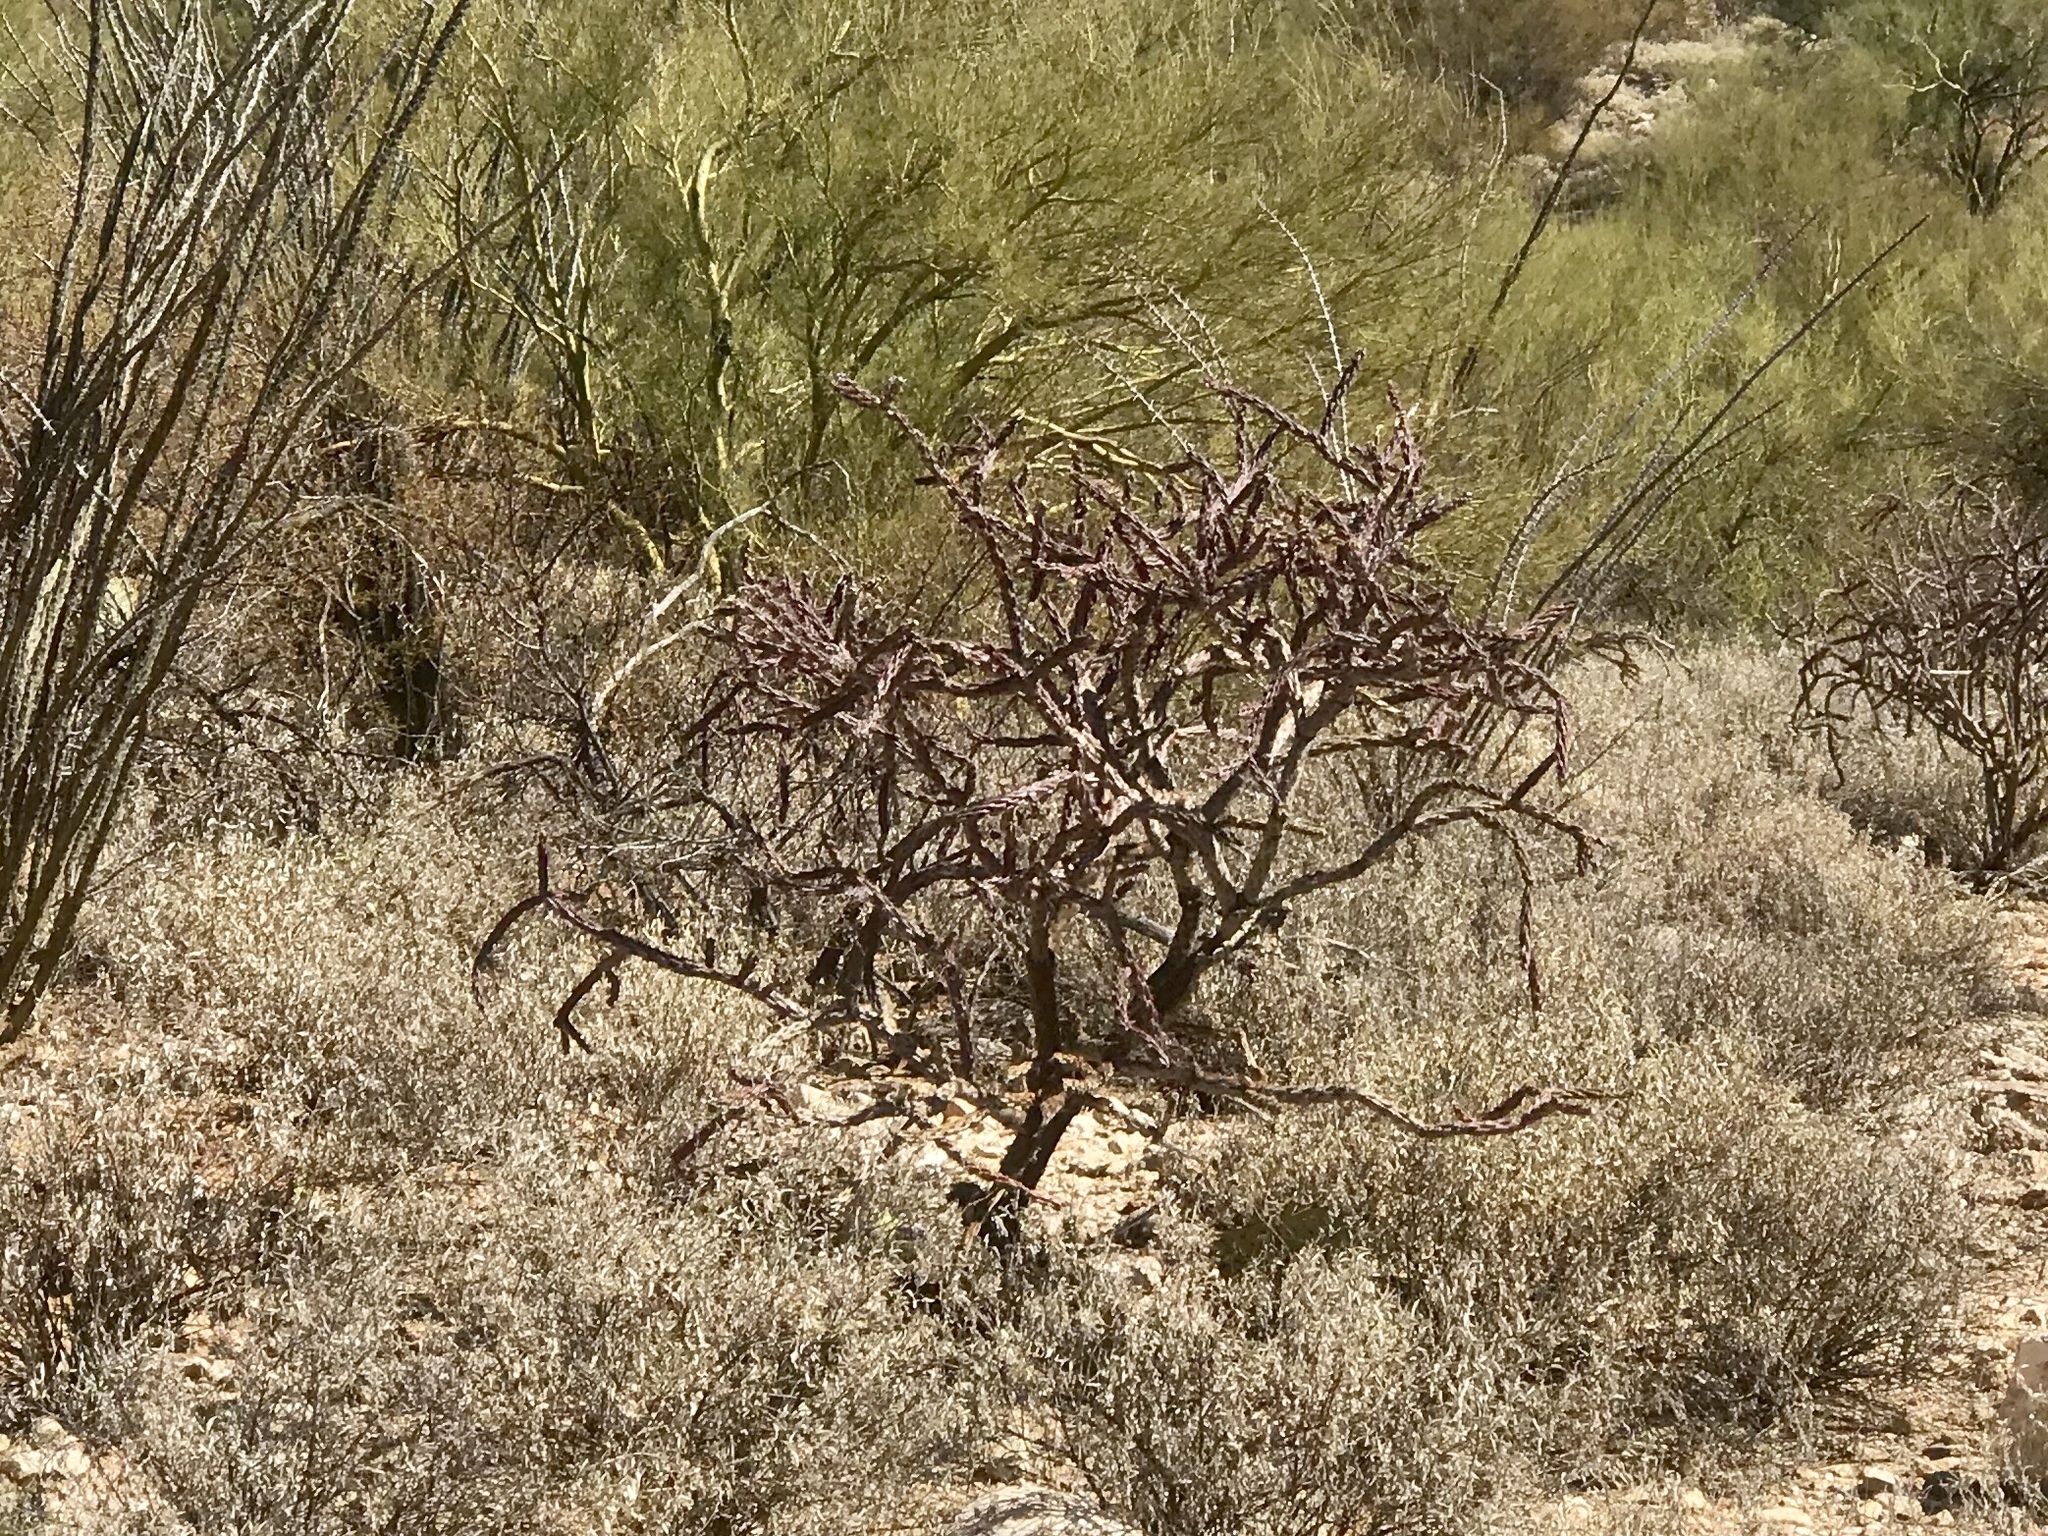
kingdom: Plantae
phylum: Tracheophyta
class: Magnoliopsida
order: Caryophyllales
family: Cactaceae
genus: Cylindropuntia
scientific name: Cylindropuntia thurberi
